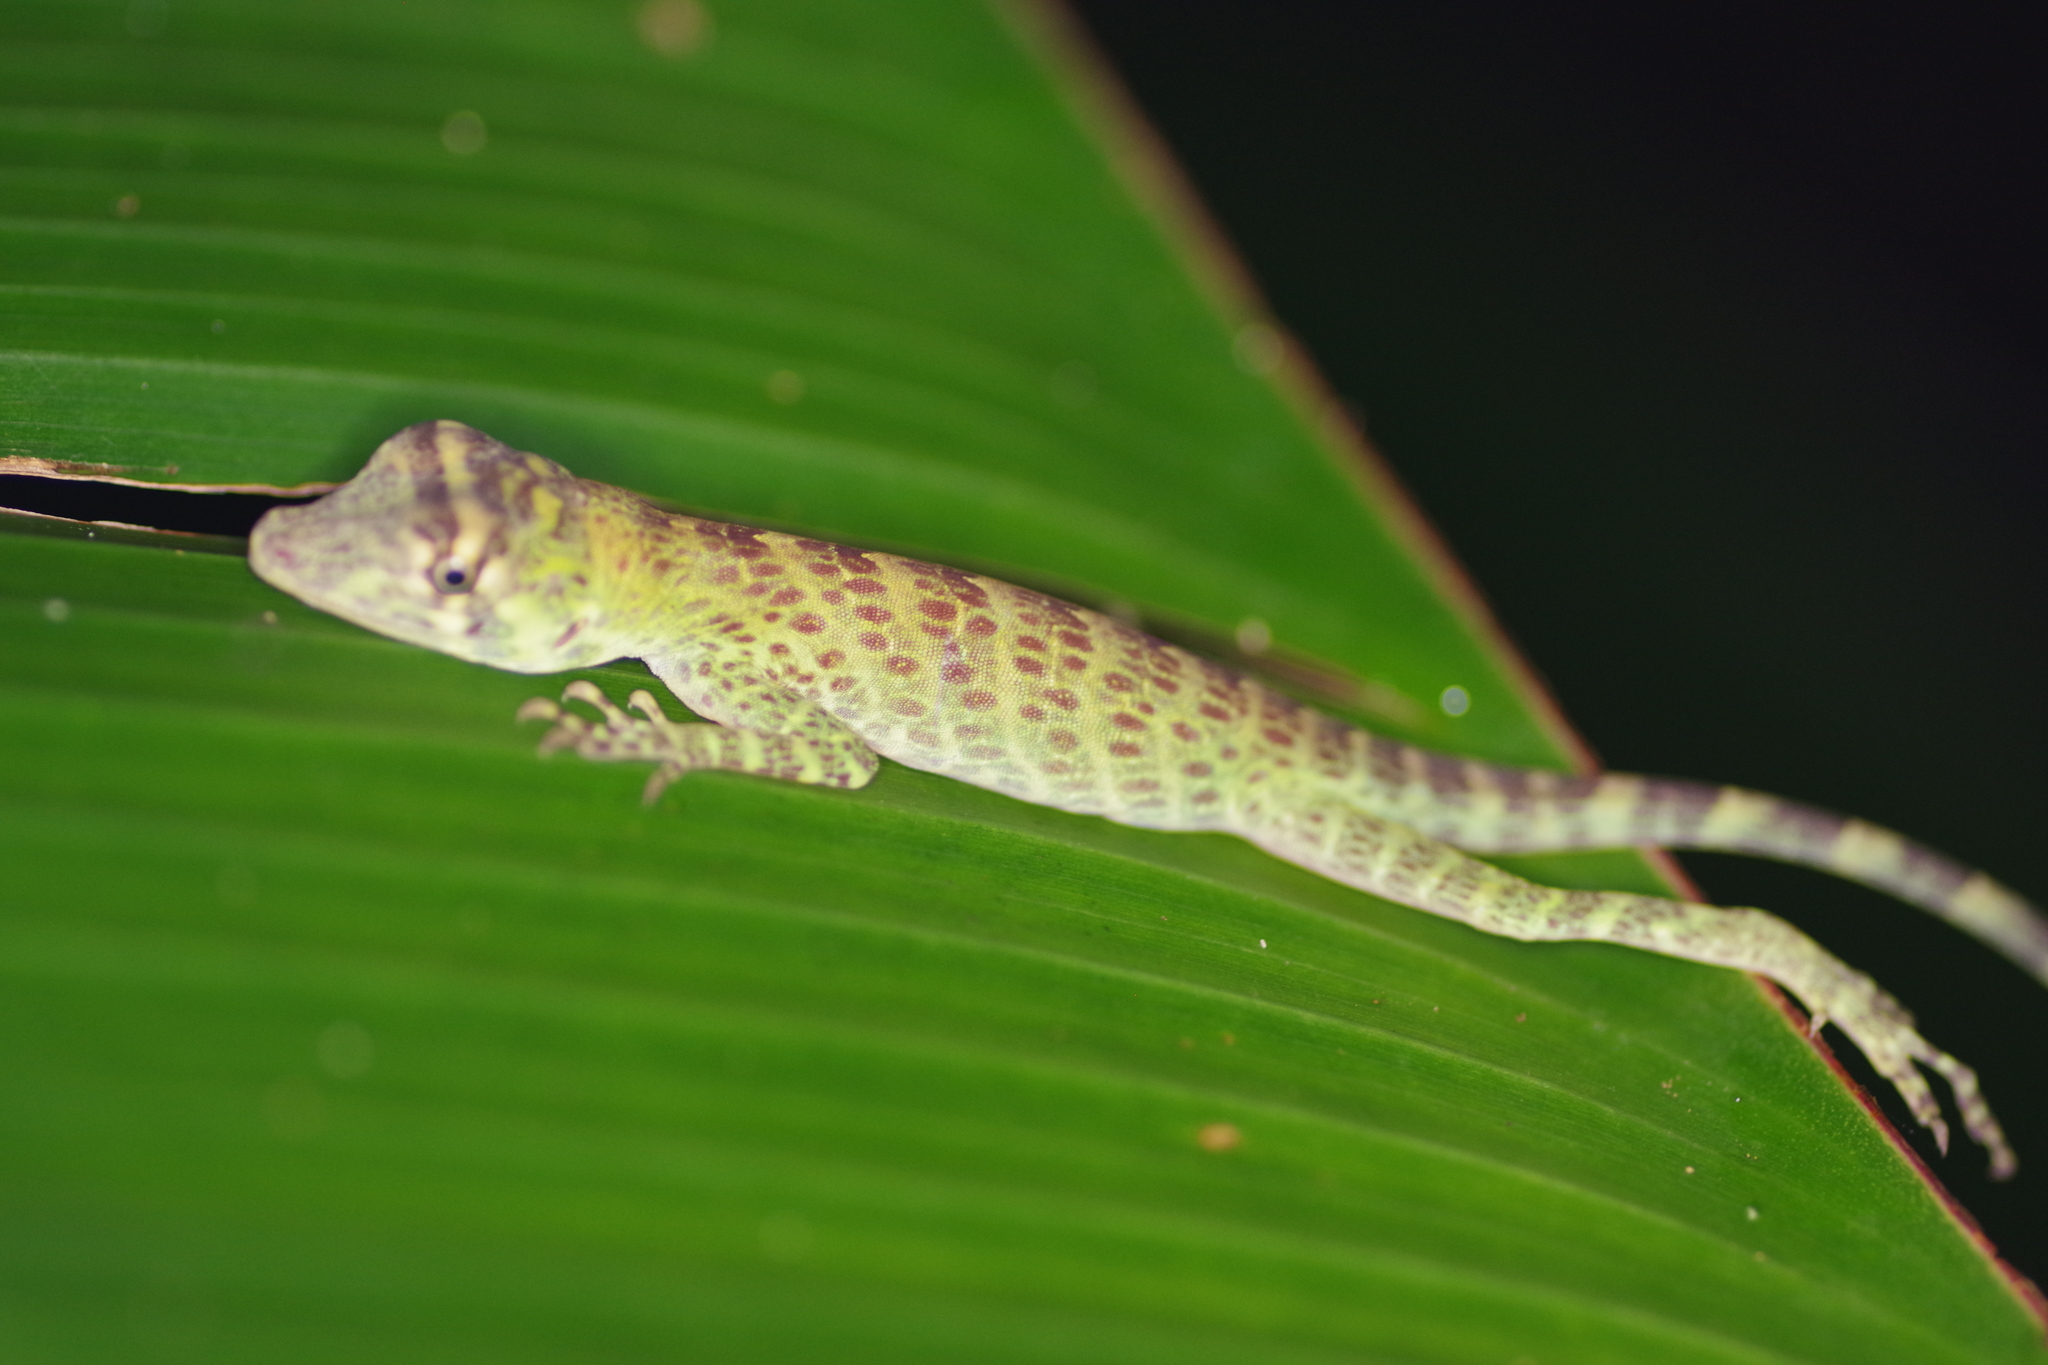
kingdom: Animalia
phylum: Chordata
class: Squamata
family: Dactyloidae
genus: Anolis
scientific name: Anolis frenatus
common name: Bridled anole
